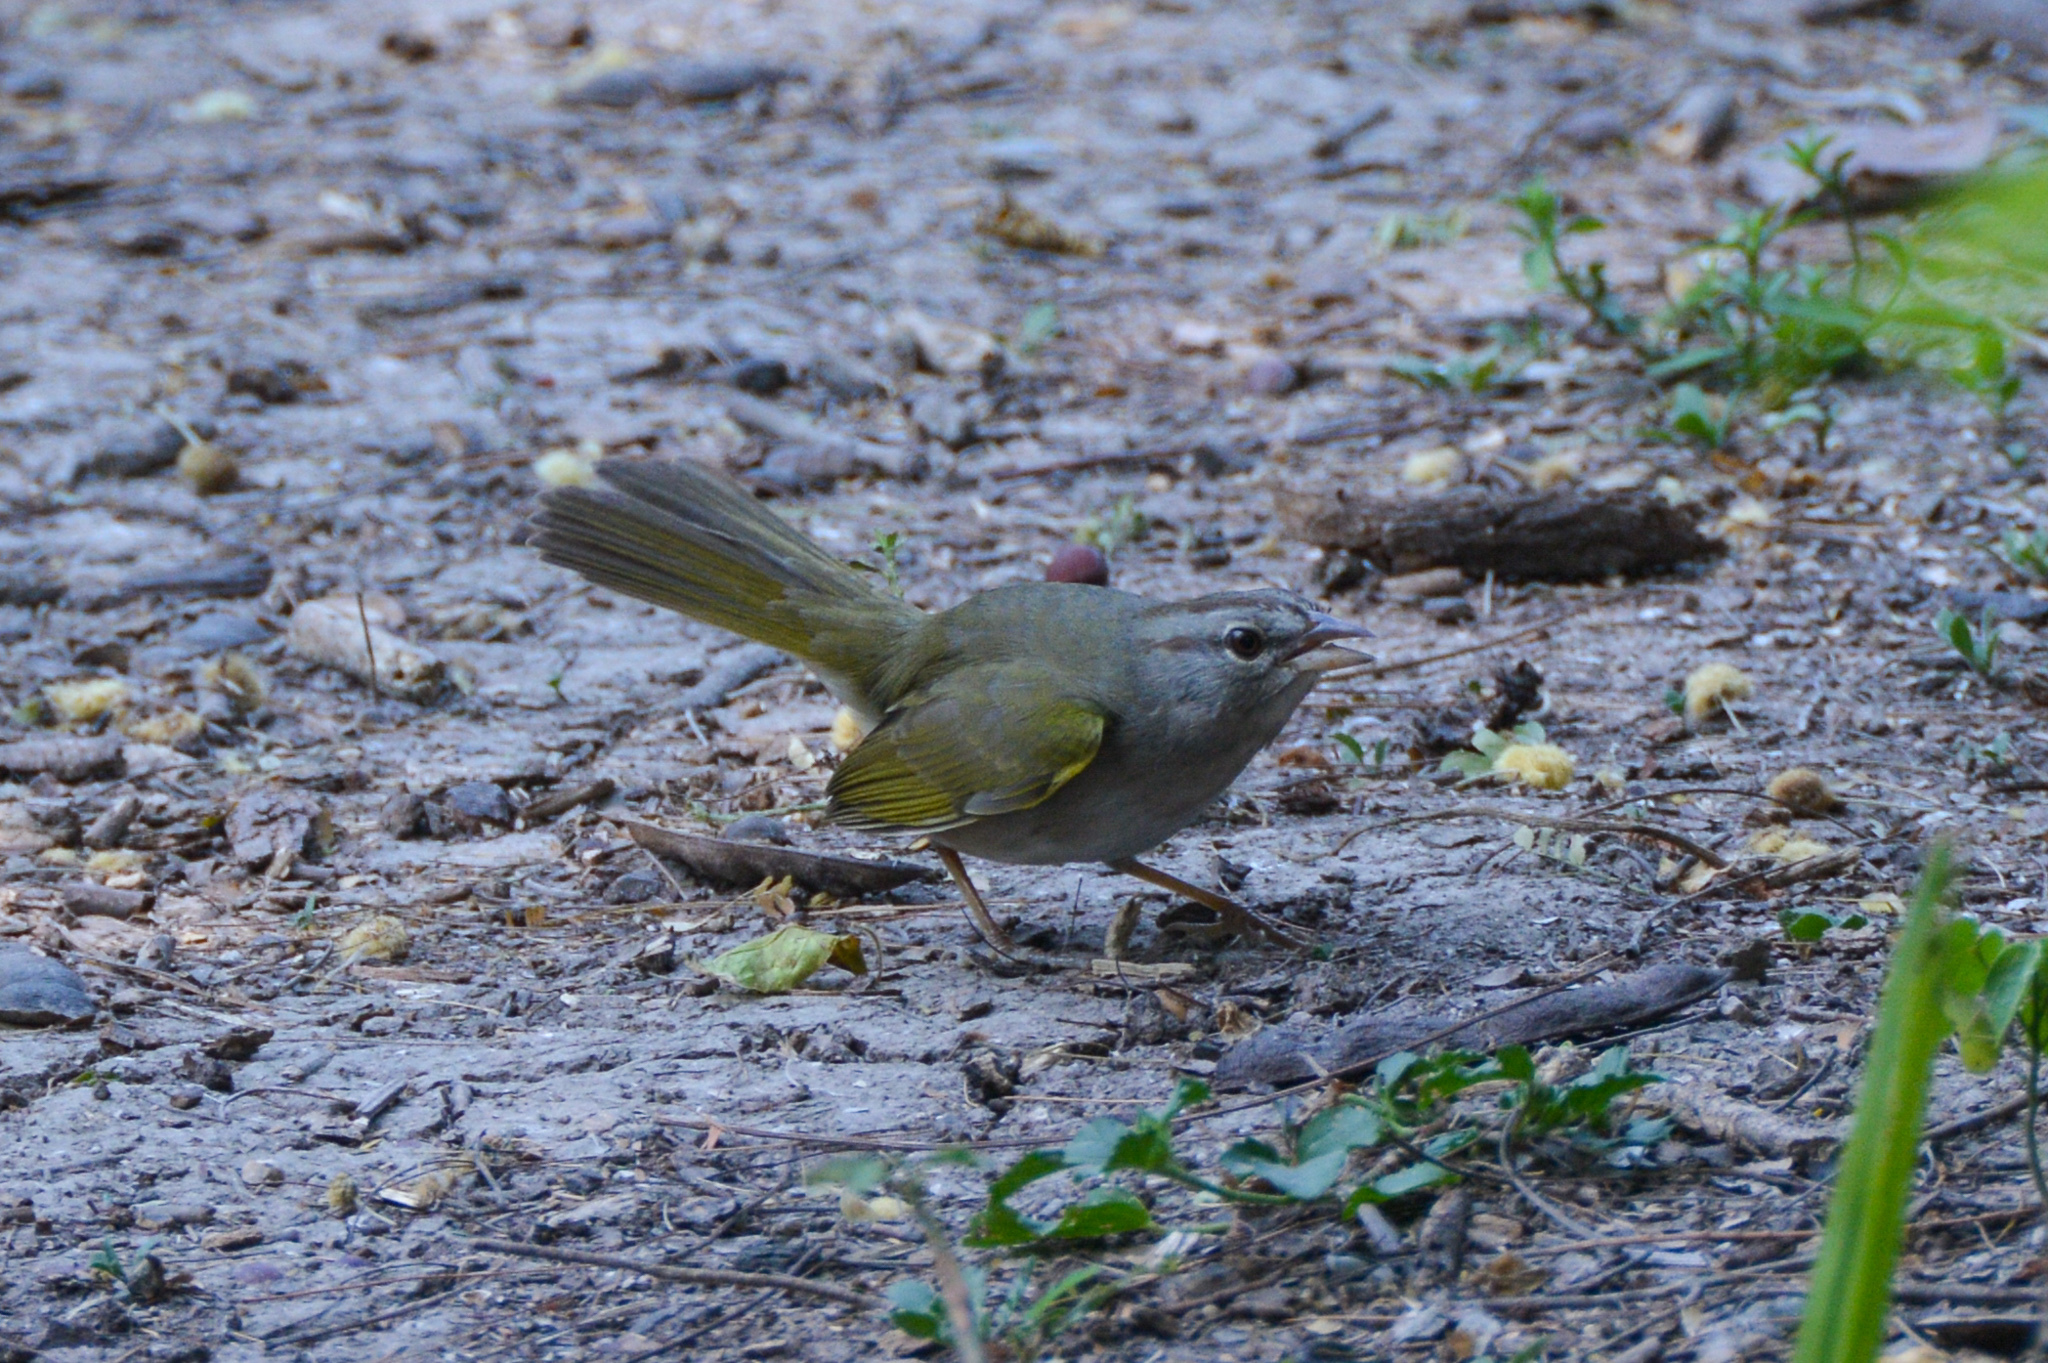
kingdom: Animalia
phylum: Chordata
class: Aves
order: Passeriformes
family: Passerellidae
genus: Arremonops
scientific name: Arremonops rufivirgatus
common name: Olive sparrow
